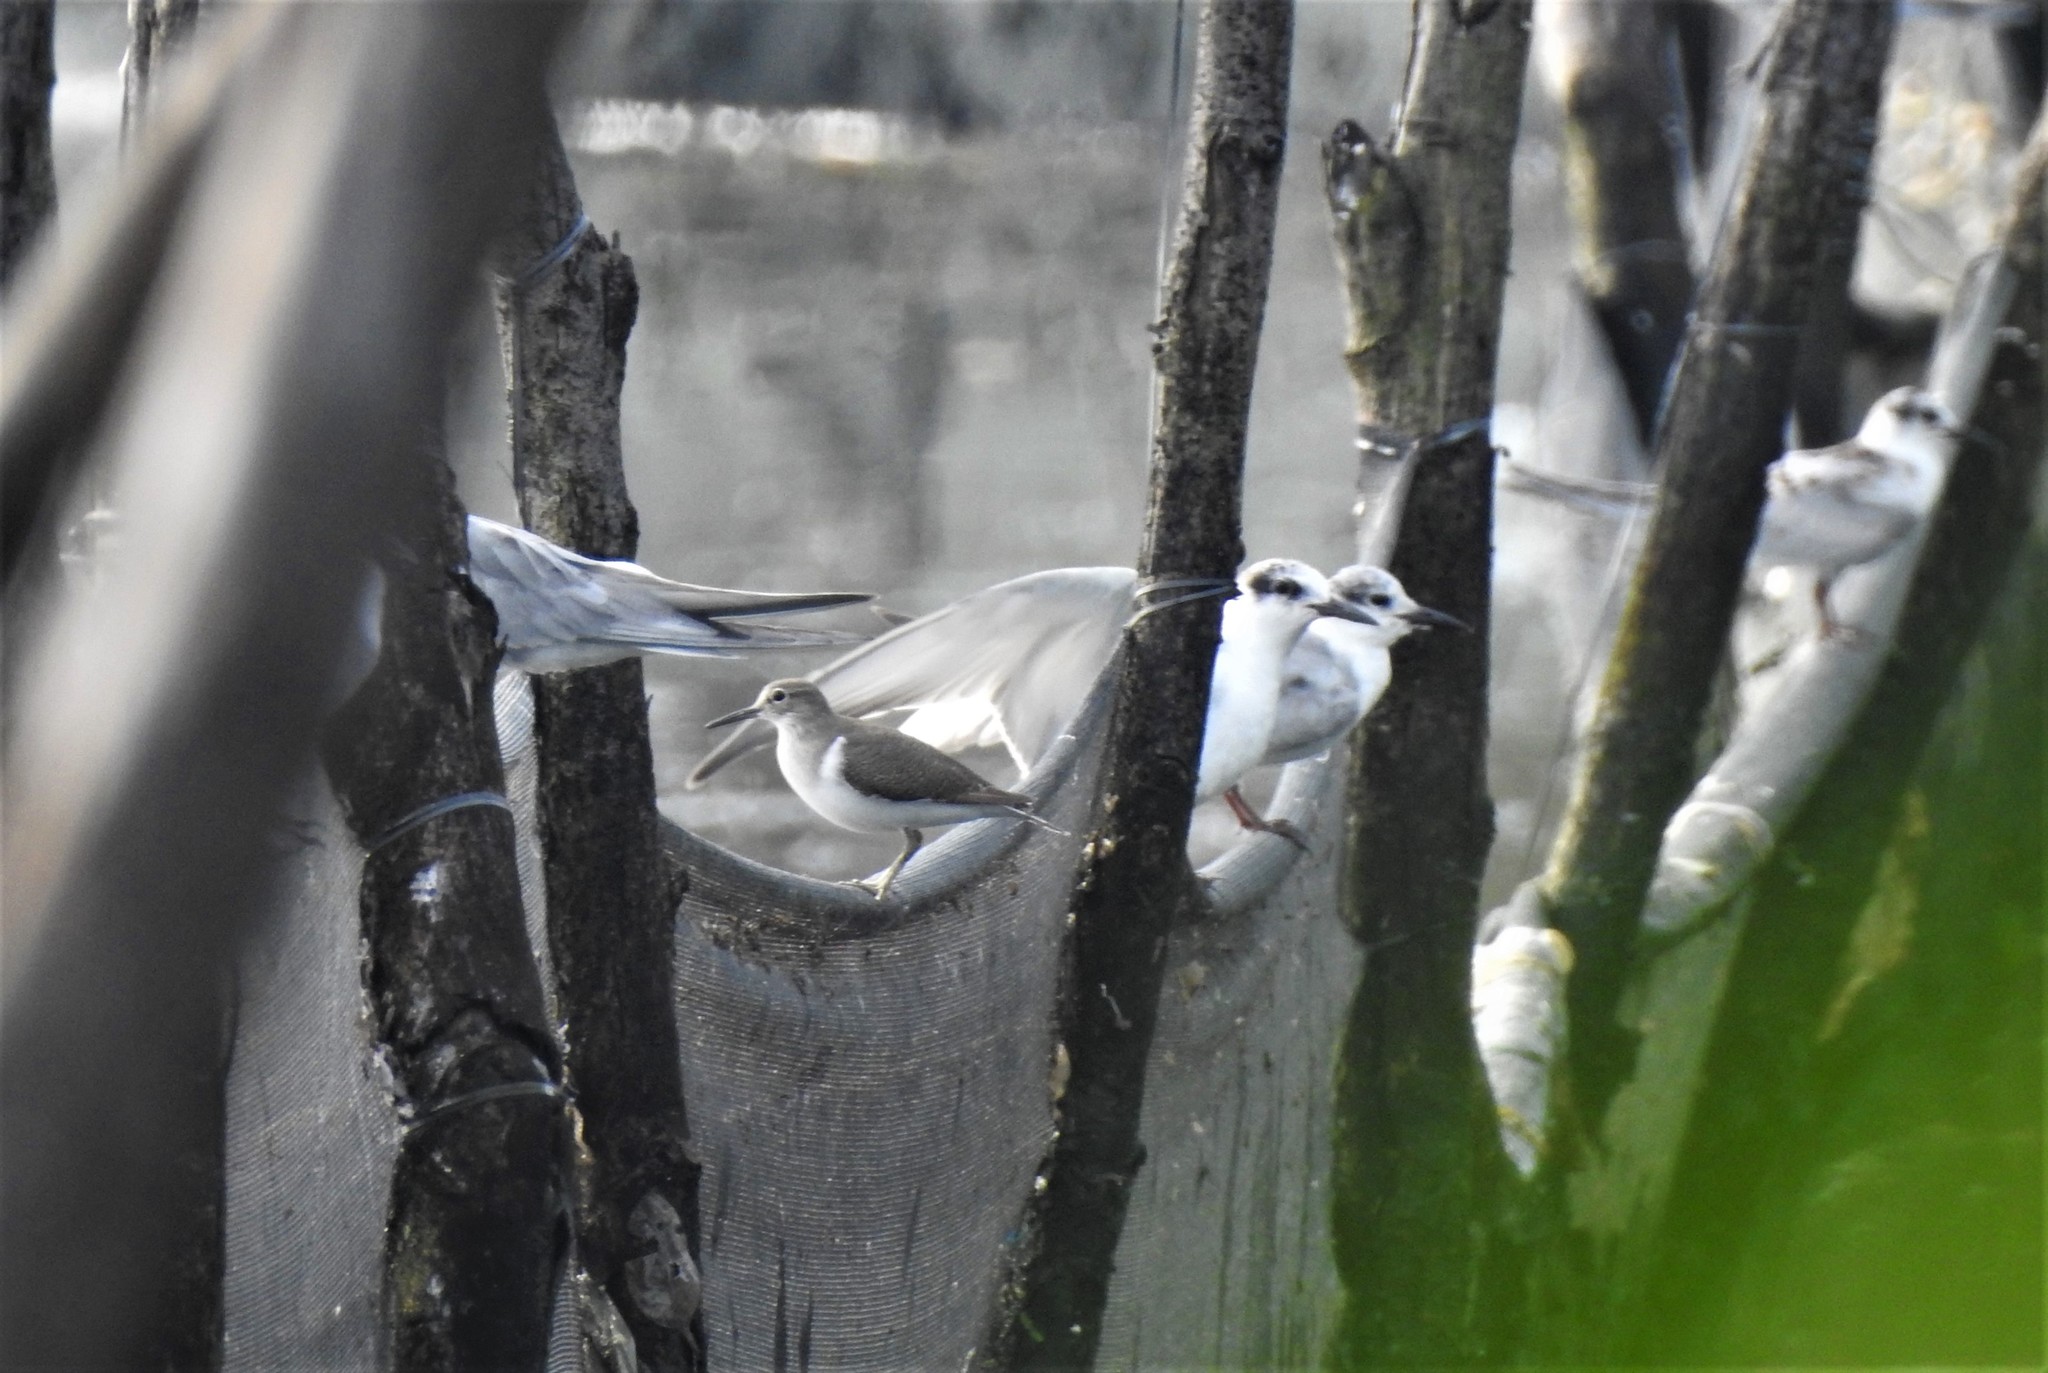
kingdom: Animalia
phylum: Chordata
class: Aves
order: Charadriiformes
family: Scolopacidae
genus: Actitis
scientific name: Actitis hypoleucos
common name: Common sandpiper
